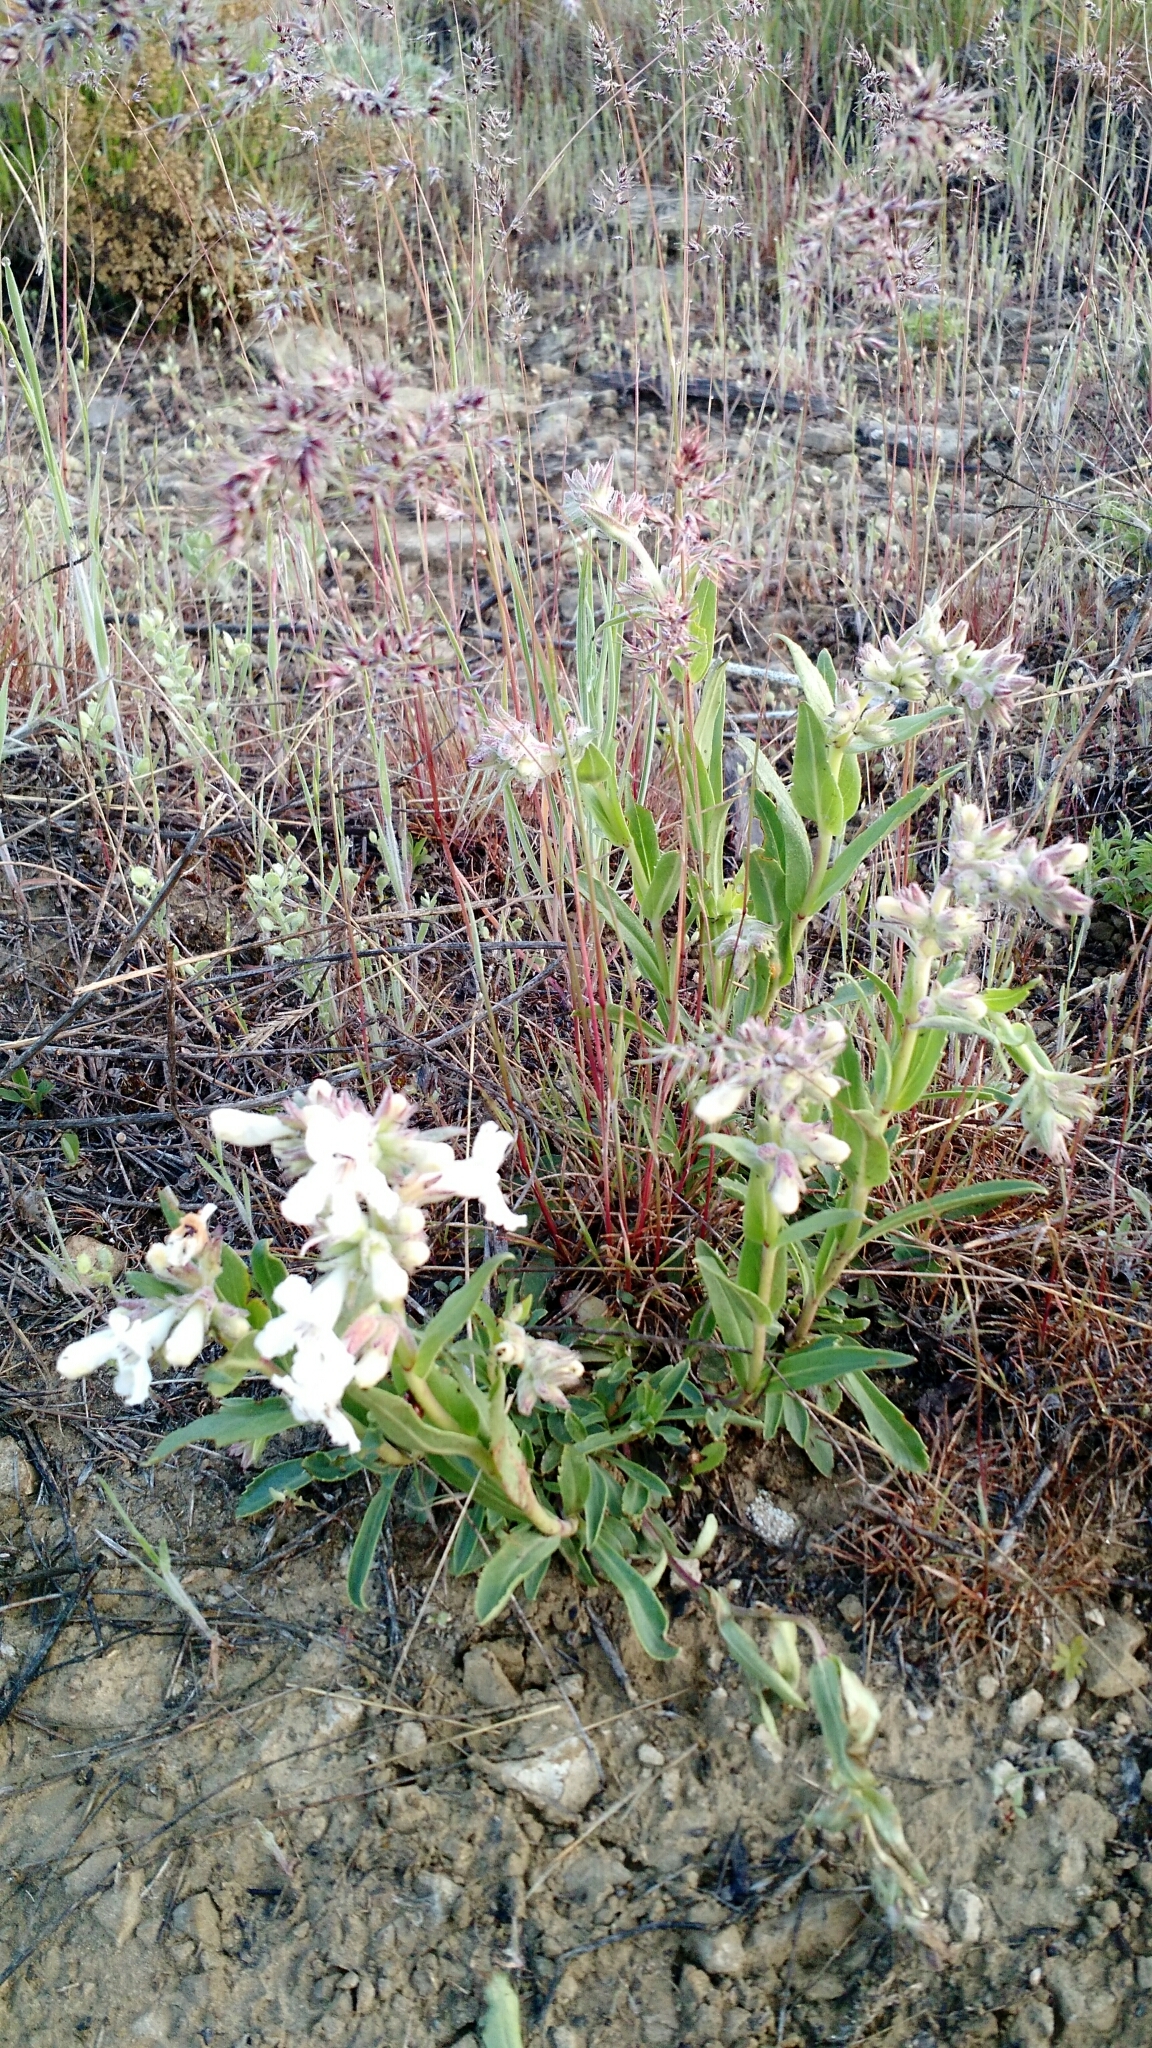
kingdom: Plantae
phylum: Tracheophyta
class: Magnoliopsida
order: Lamiales
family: Plantaginaceae
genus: Penstemon
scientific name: Penstemon albidus
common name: White beardtongue
